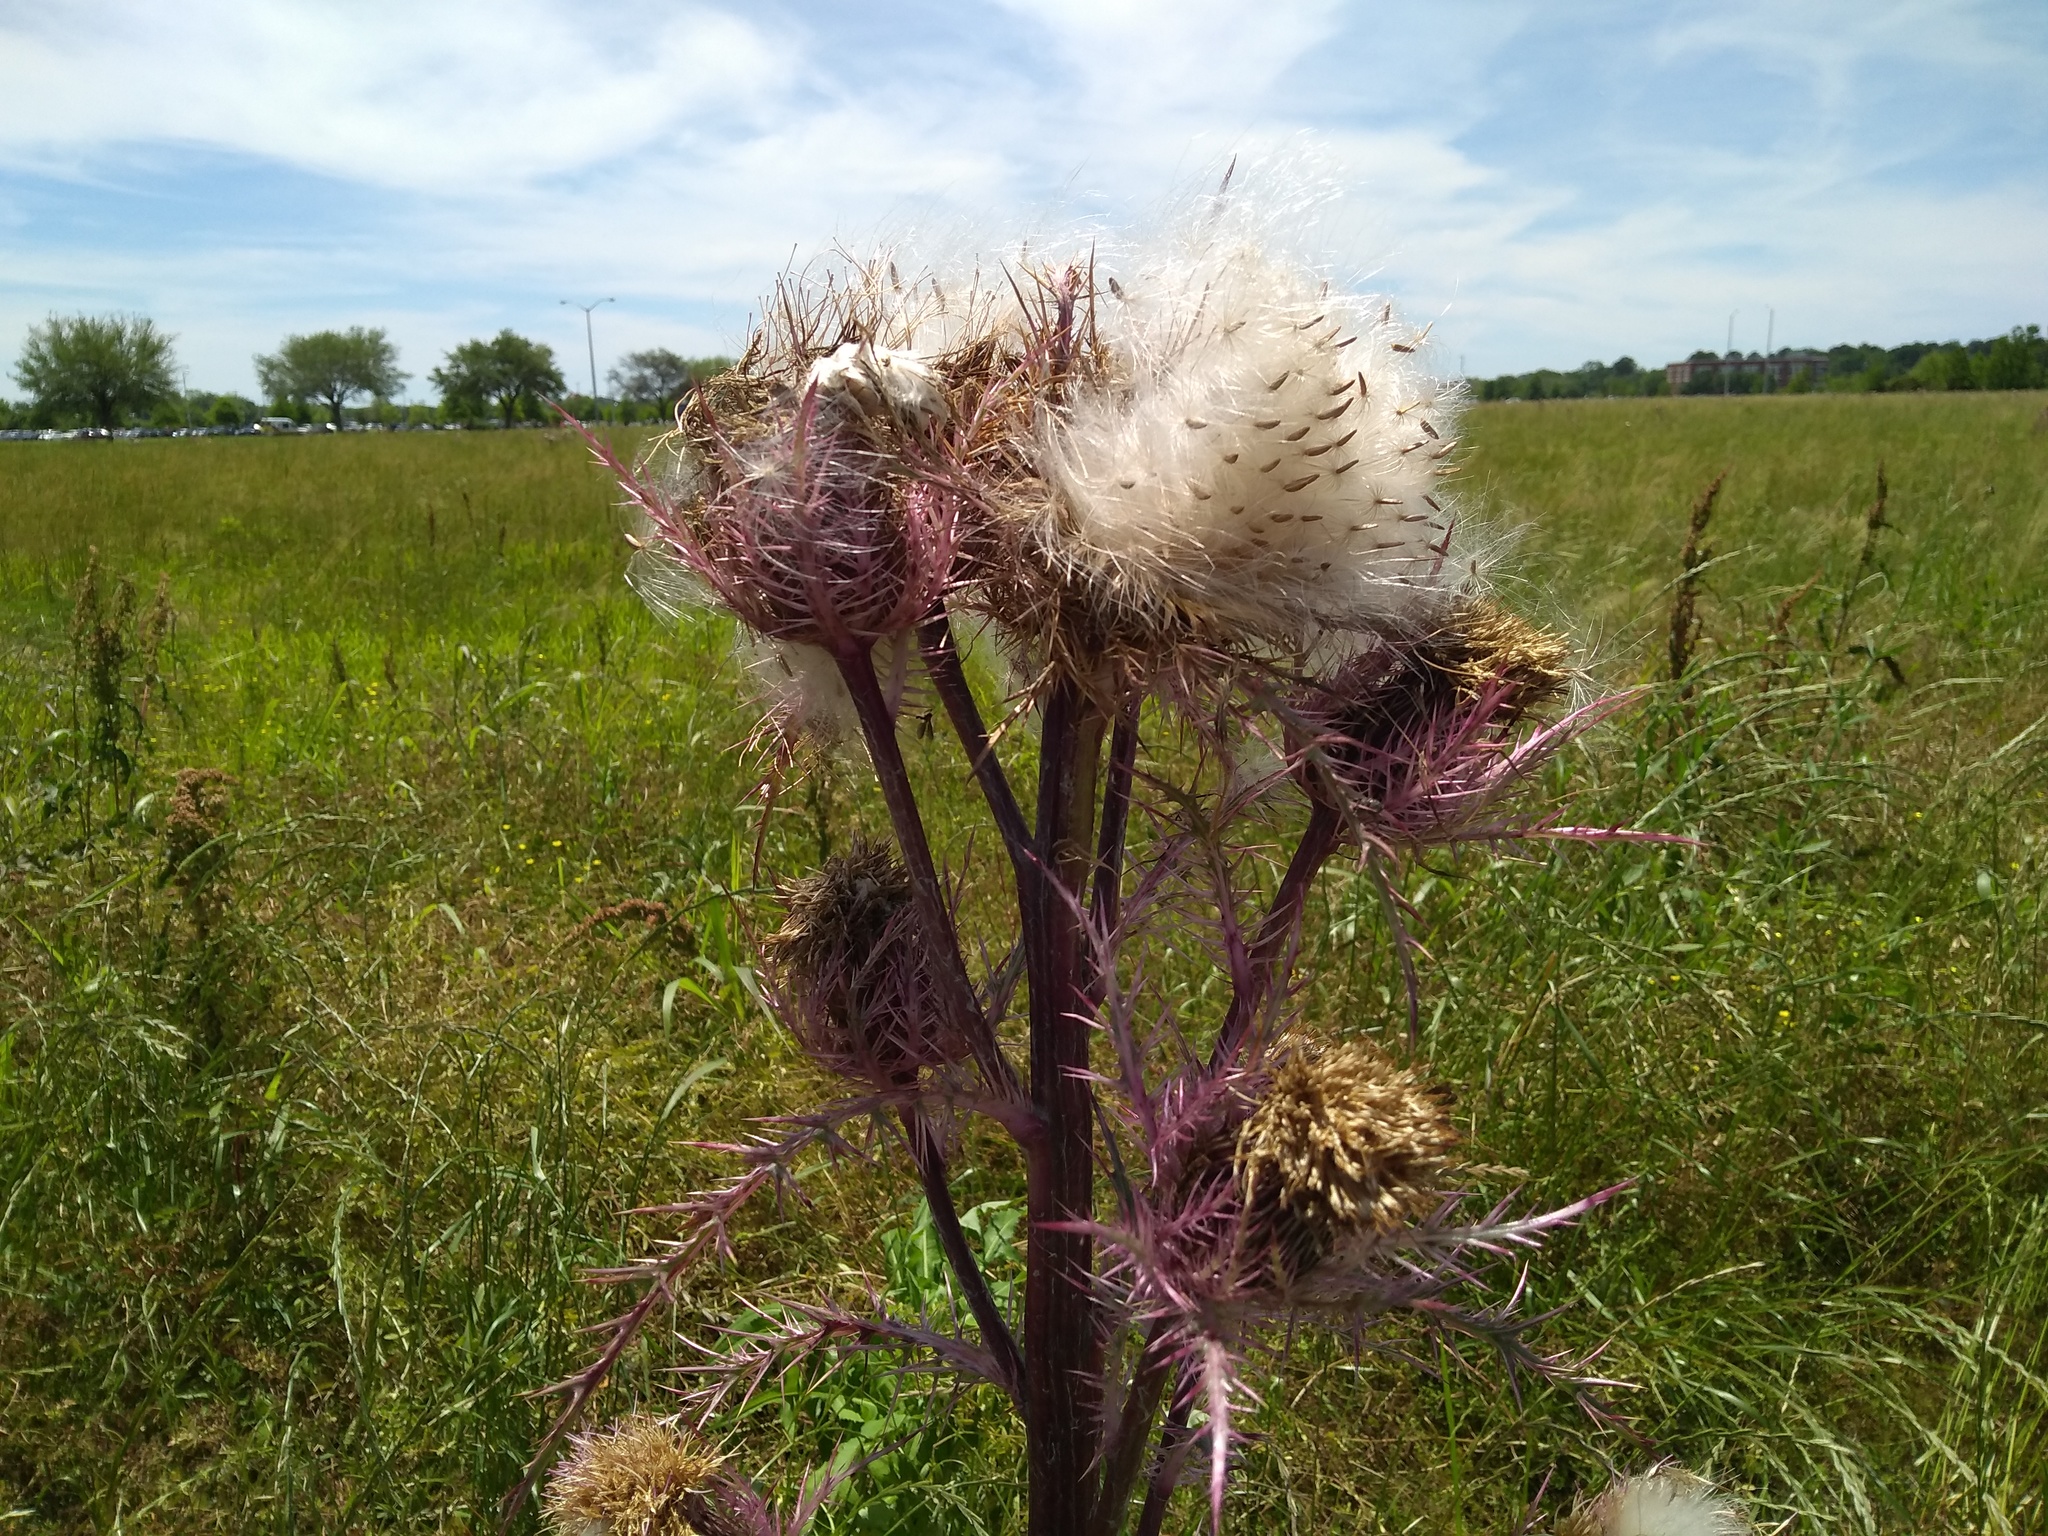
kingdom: Plantae
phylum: Tracheophyta
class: Magnoliopsida
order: Asterales
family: Asteraceae
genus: Cirsium
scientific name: Cirsium horridulum
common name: Bristly thistle
